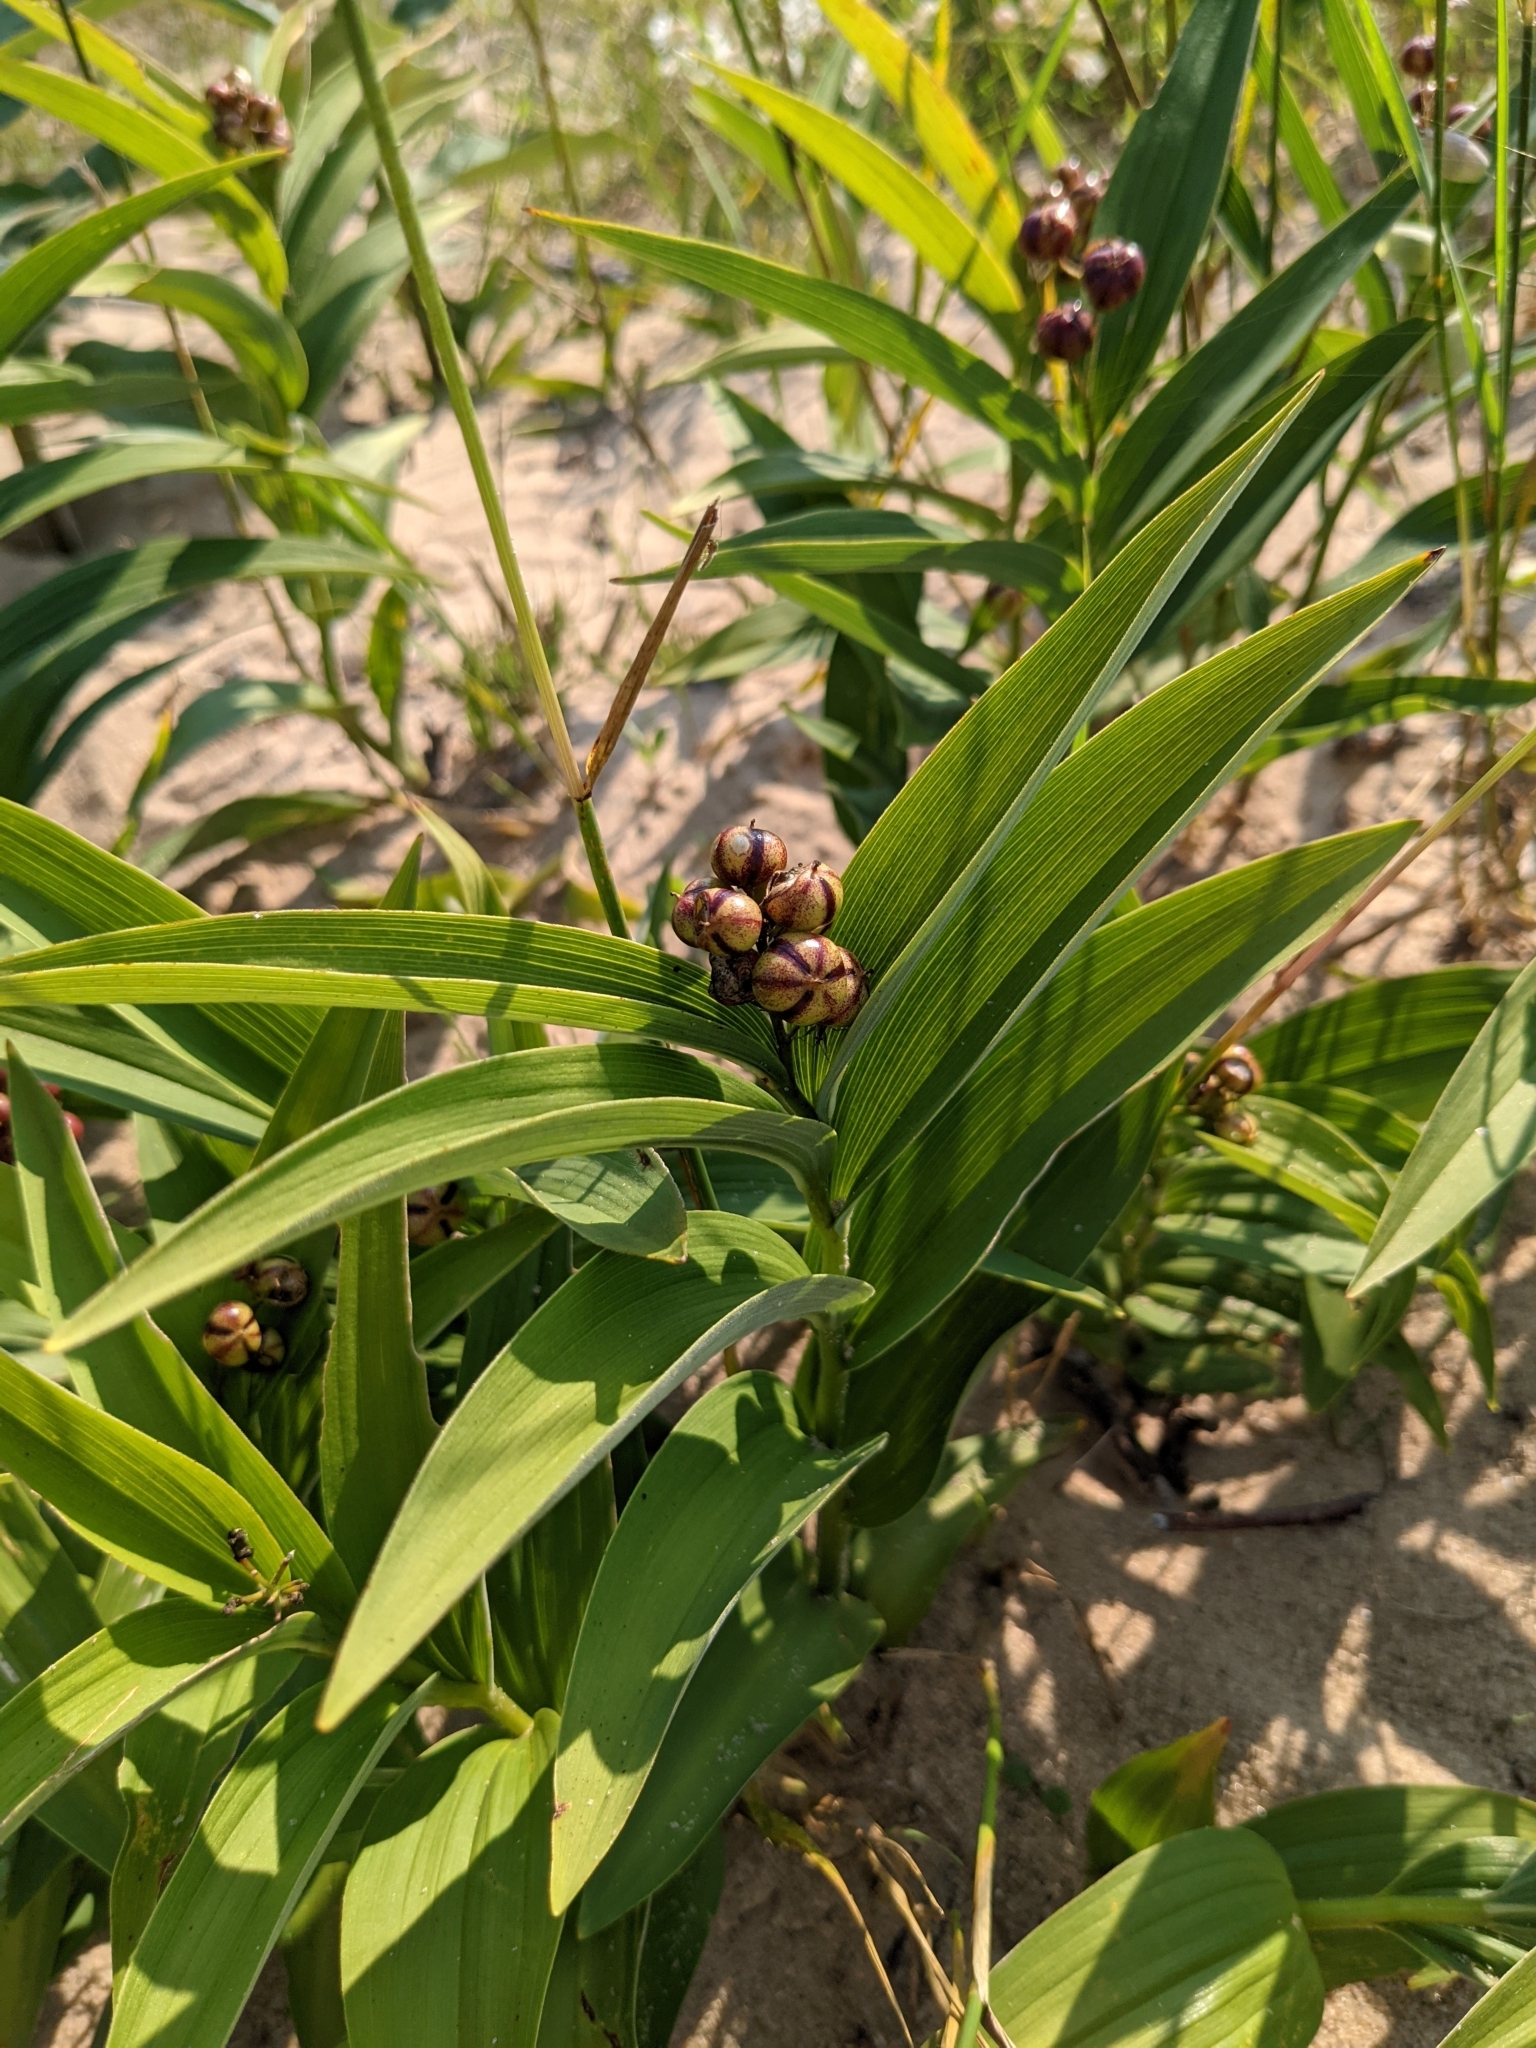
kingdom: Plantae
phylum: Tracheophyta
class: Liliopsida
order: Asparagales
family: Asparagaceae
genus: Maianthemum
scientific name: Maianthemum stellatum
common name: Little false solomon's seal
